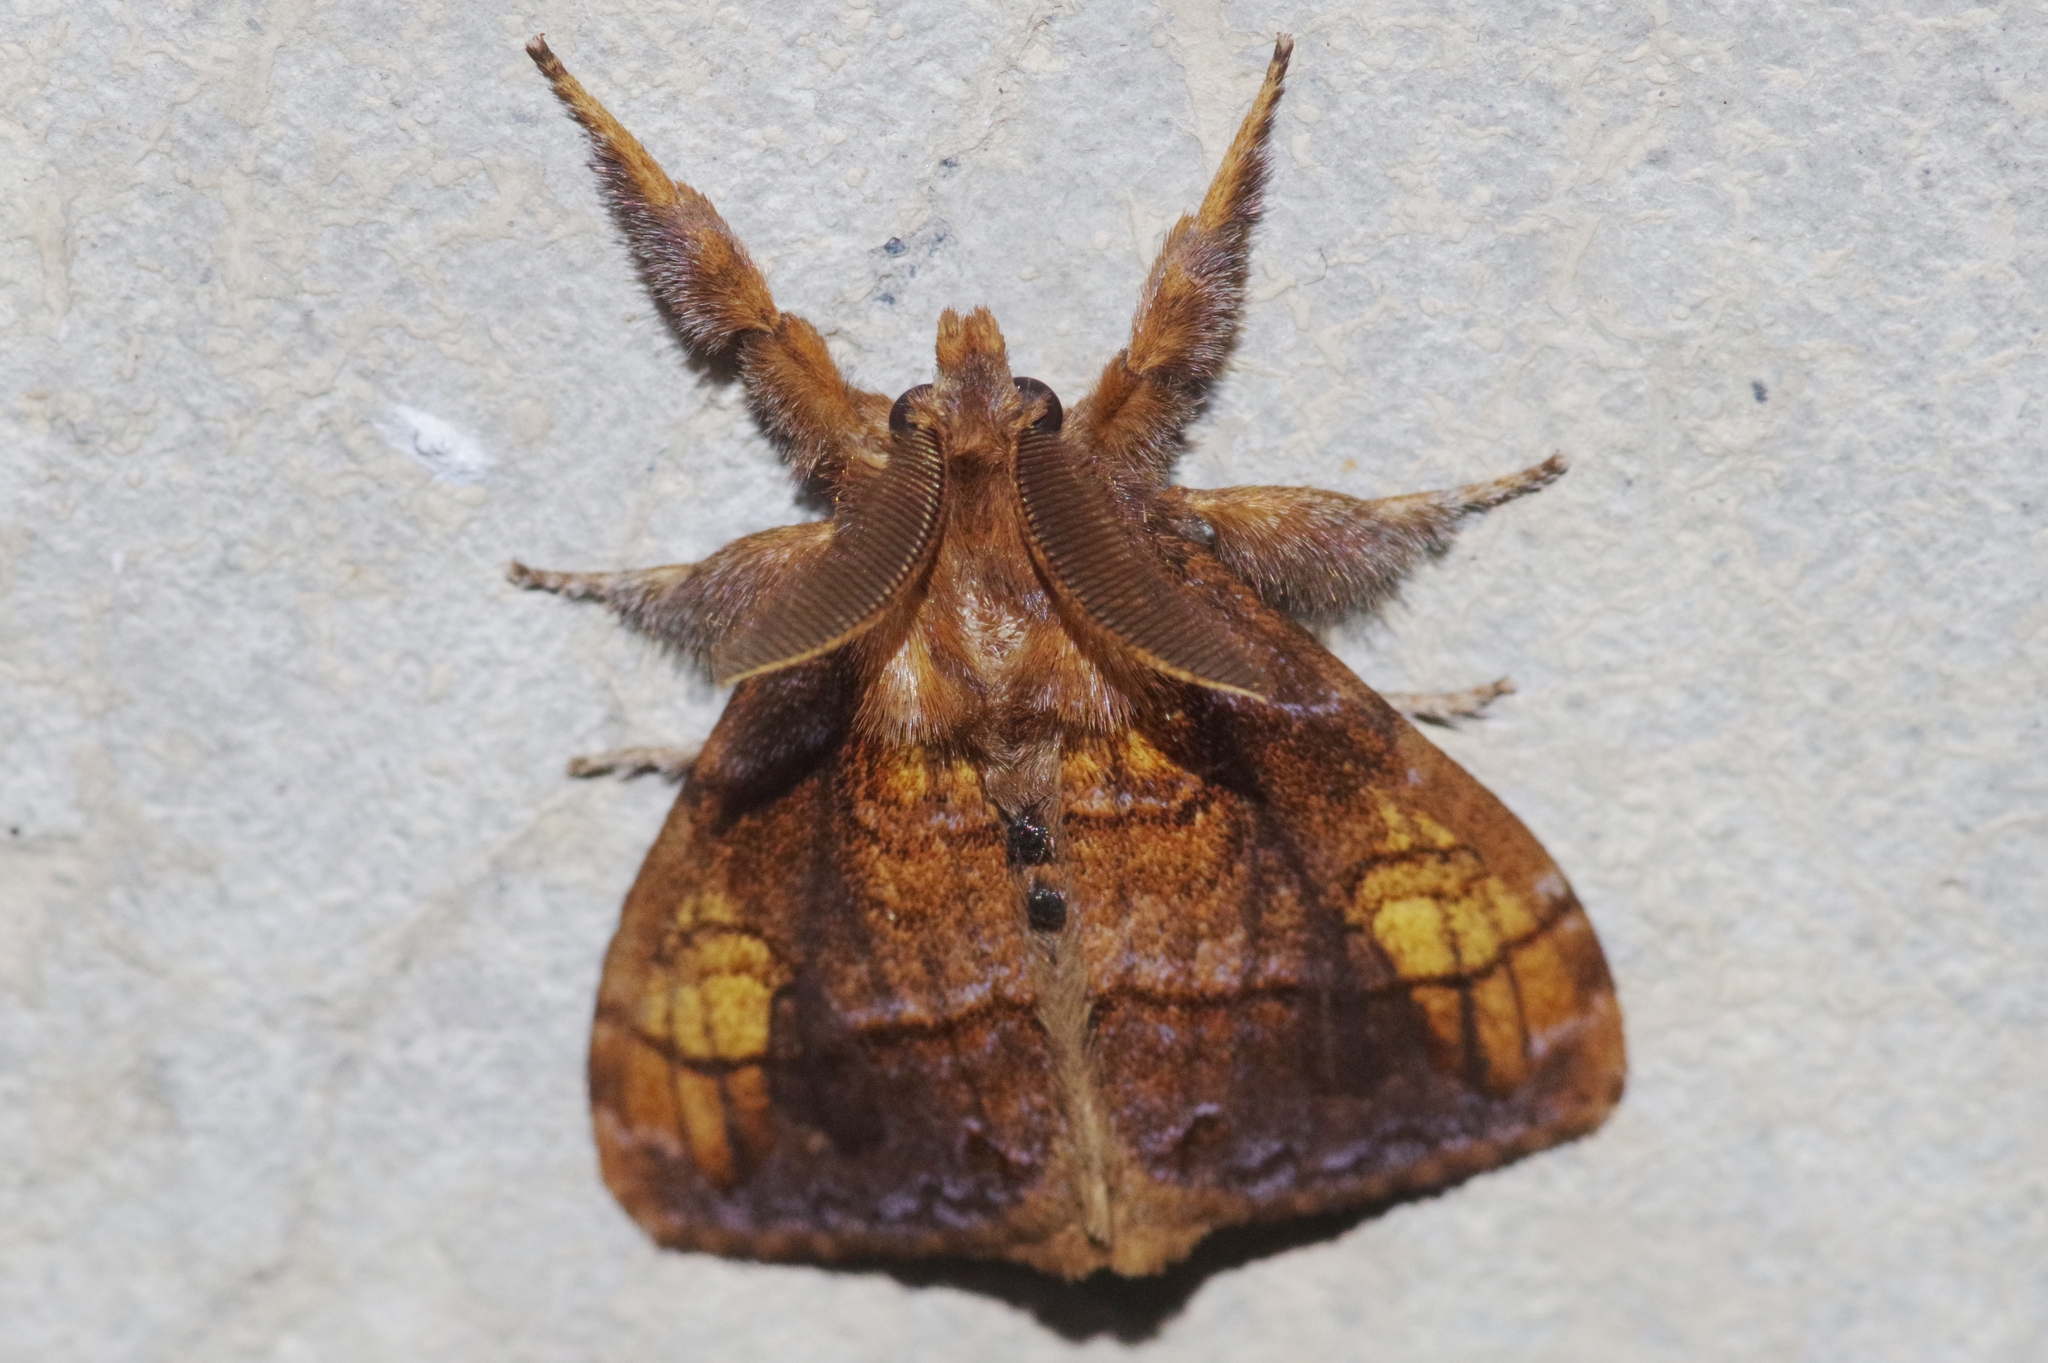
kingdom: Animalia
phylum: Arthropoda
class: Insecta
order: Lepidoptera
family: Erebidae
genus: Cifuna
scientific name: Cifuna locuples
